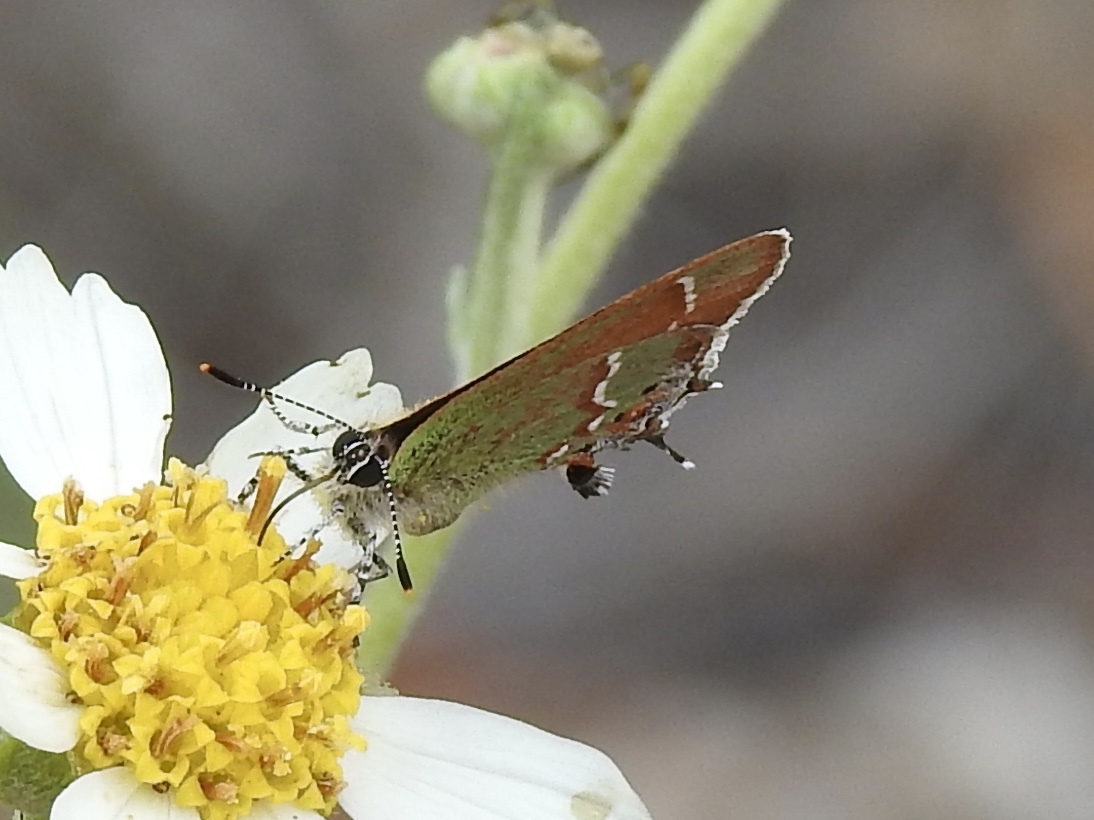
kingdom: Animalia
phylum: Arthropoda
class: Insecta
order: Lepidoptera
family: Lycaenidae
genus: Mitoura
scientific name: Mitoura gryneus
